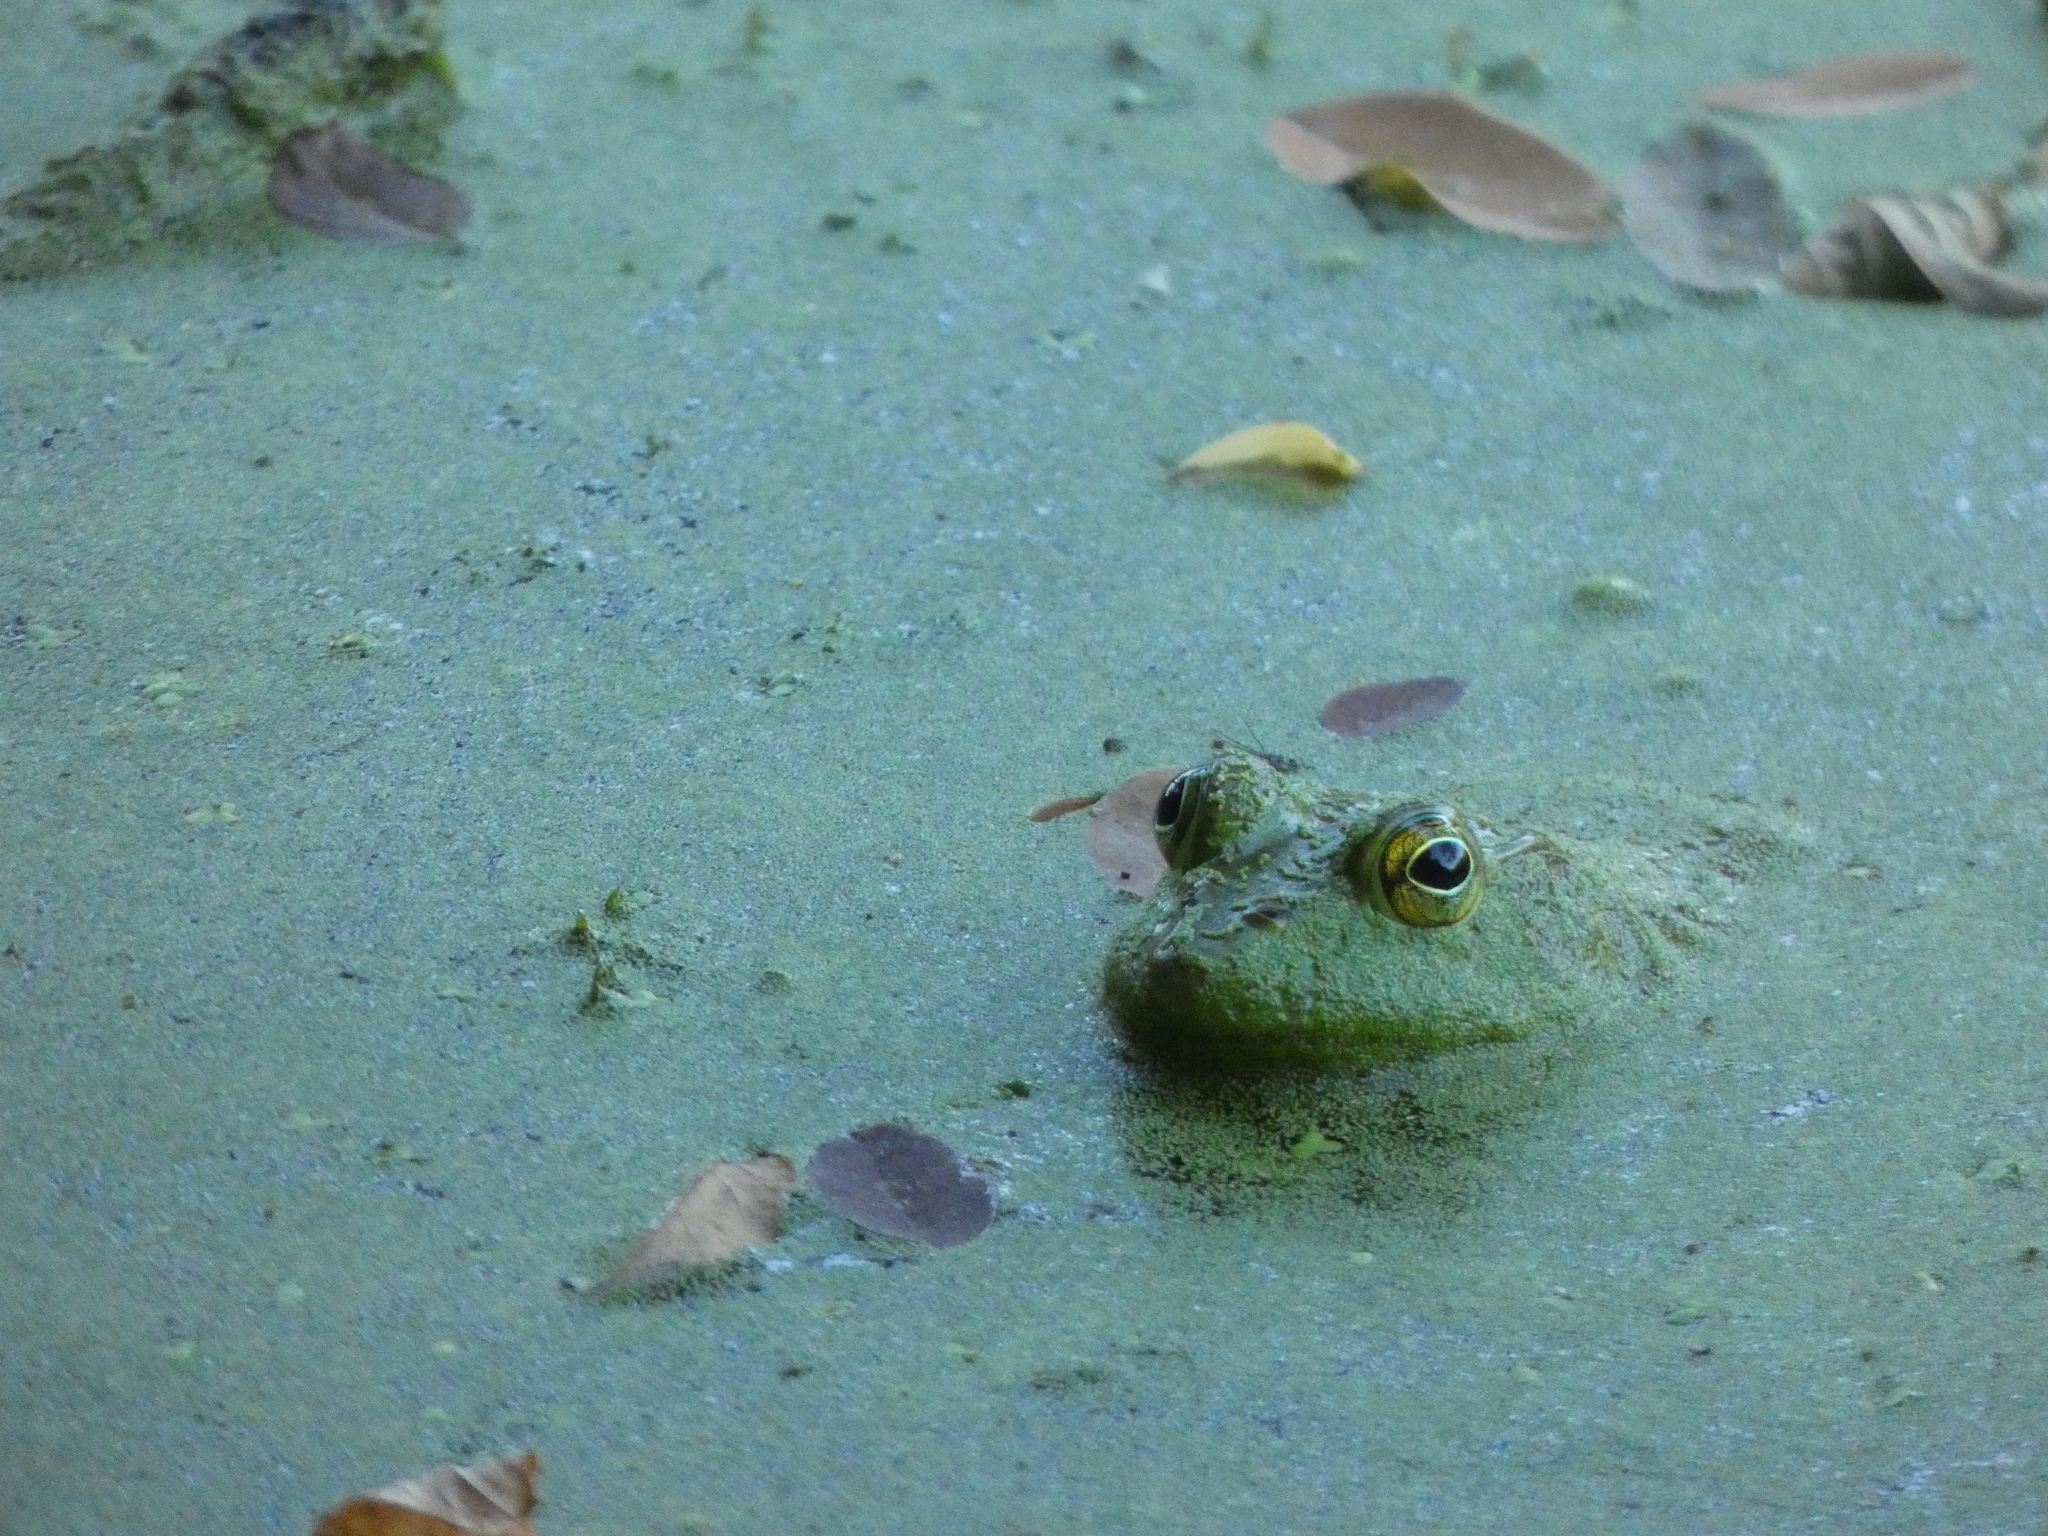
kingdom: Animalia
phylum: Chordata
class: Amphibia
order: Anura
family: Ranidae
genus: Lithobates
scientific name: Lithobates catesbeianus
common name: American bullfrog
